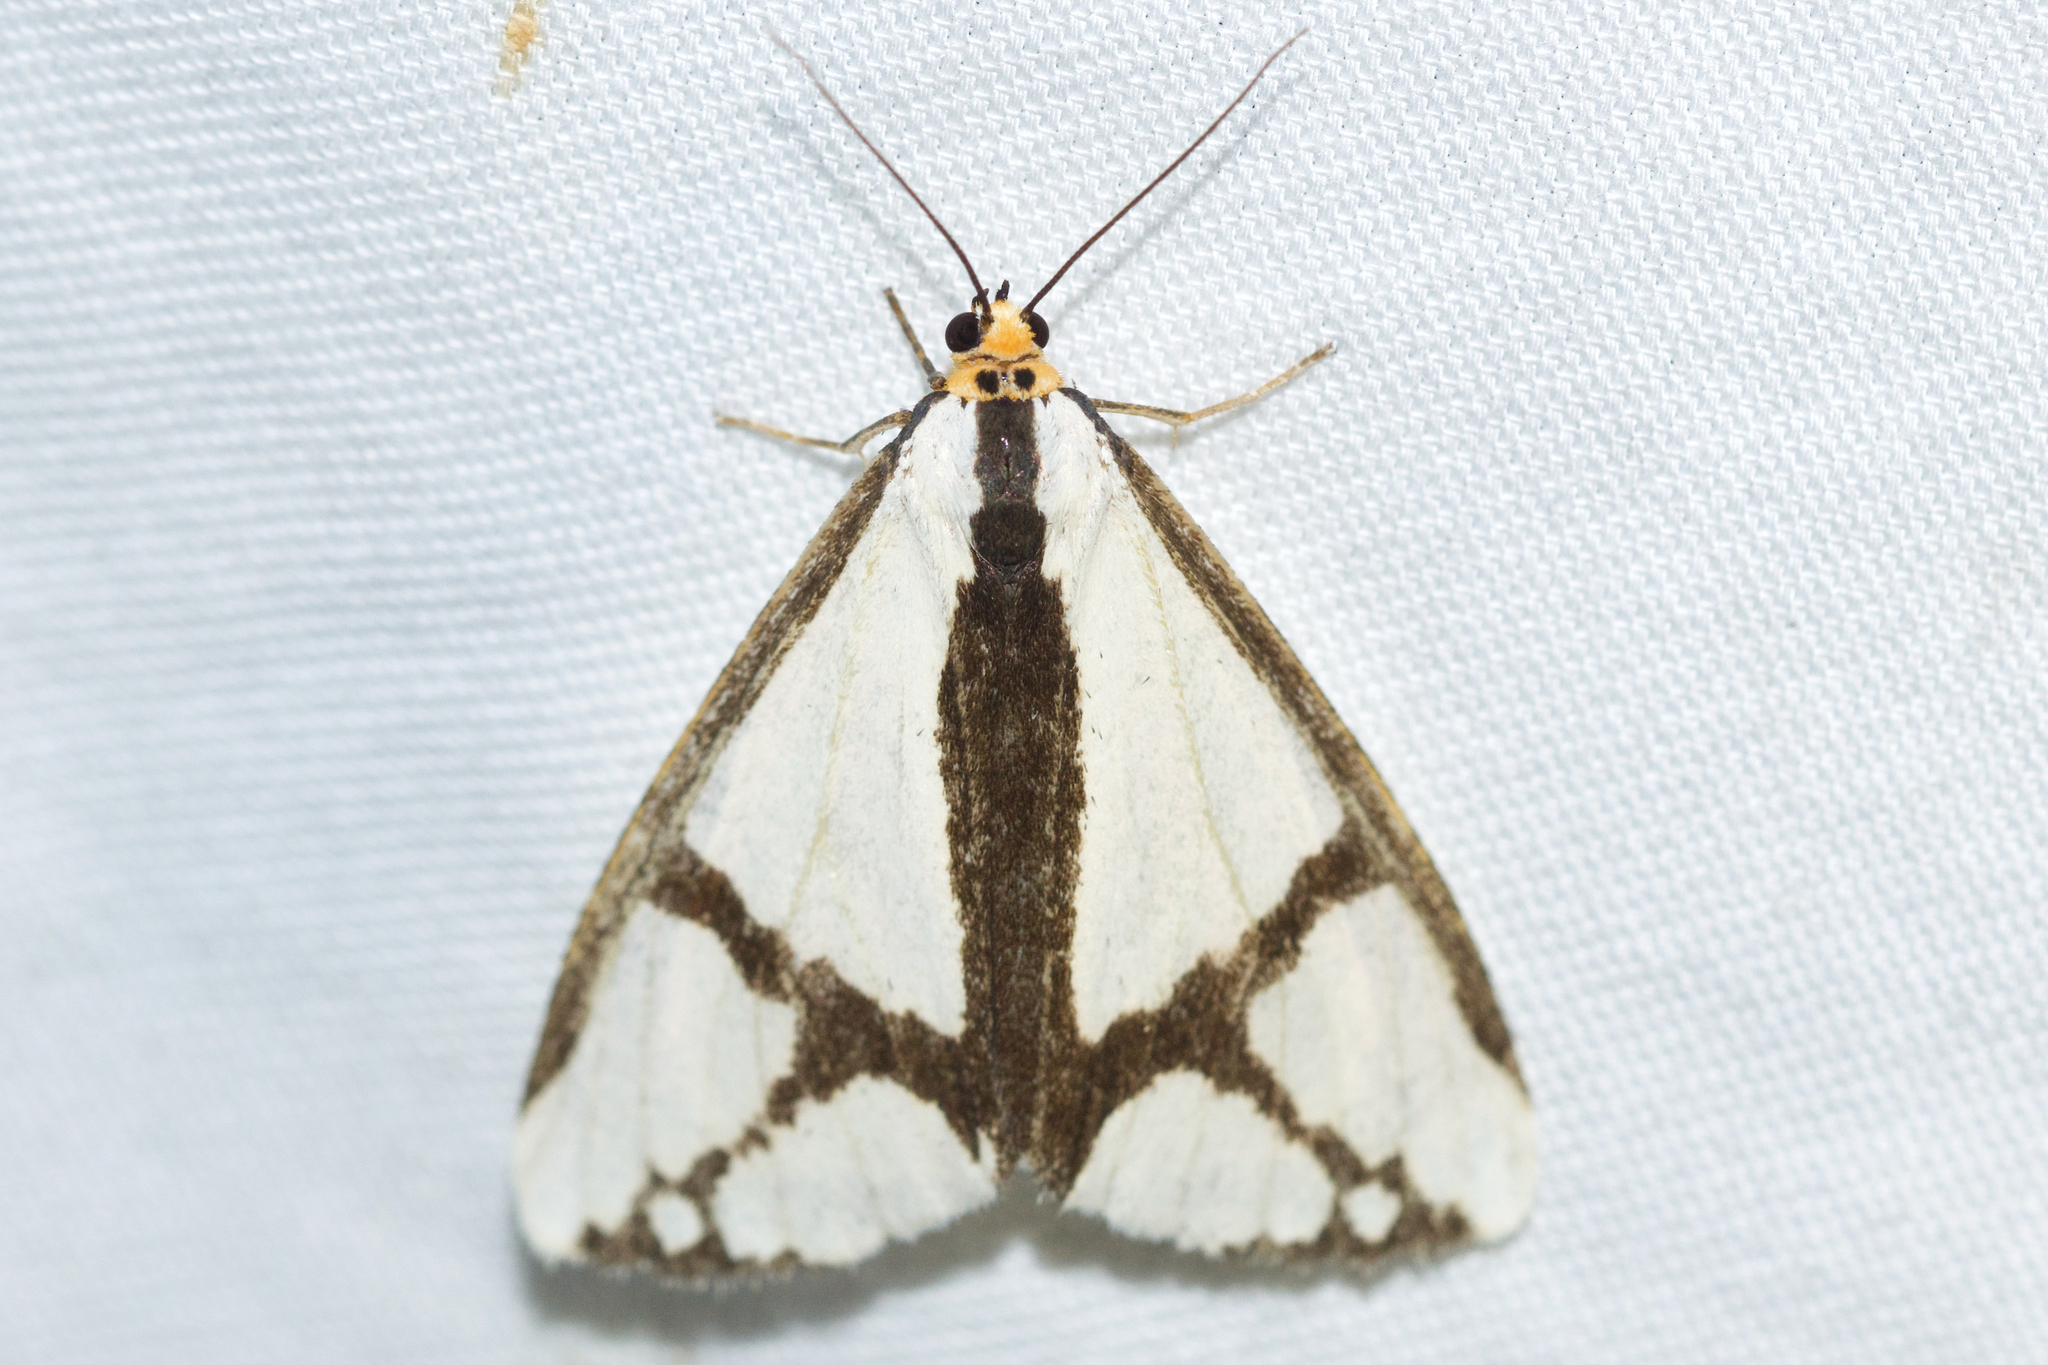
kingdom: Animalia
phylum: Arthropoda
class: Insecta
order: Lepidoptera
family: Erebidae
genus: Haploa
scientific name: Haploa contigua
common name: Neighbor moth
